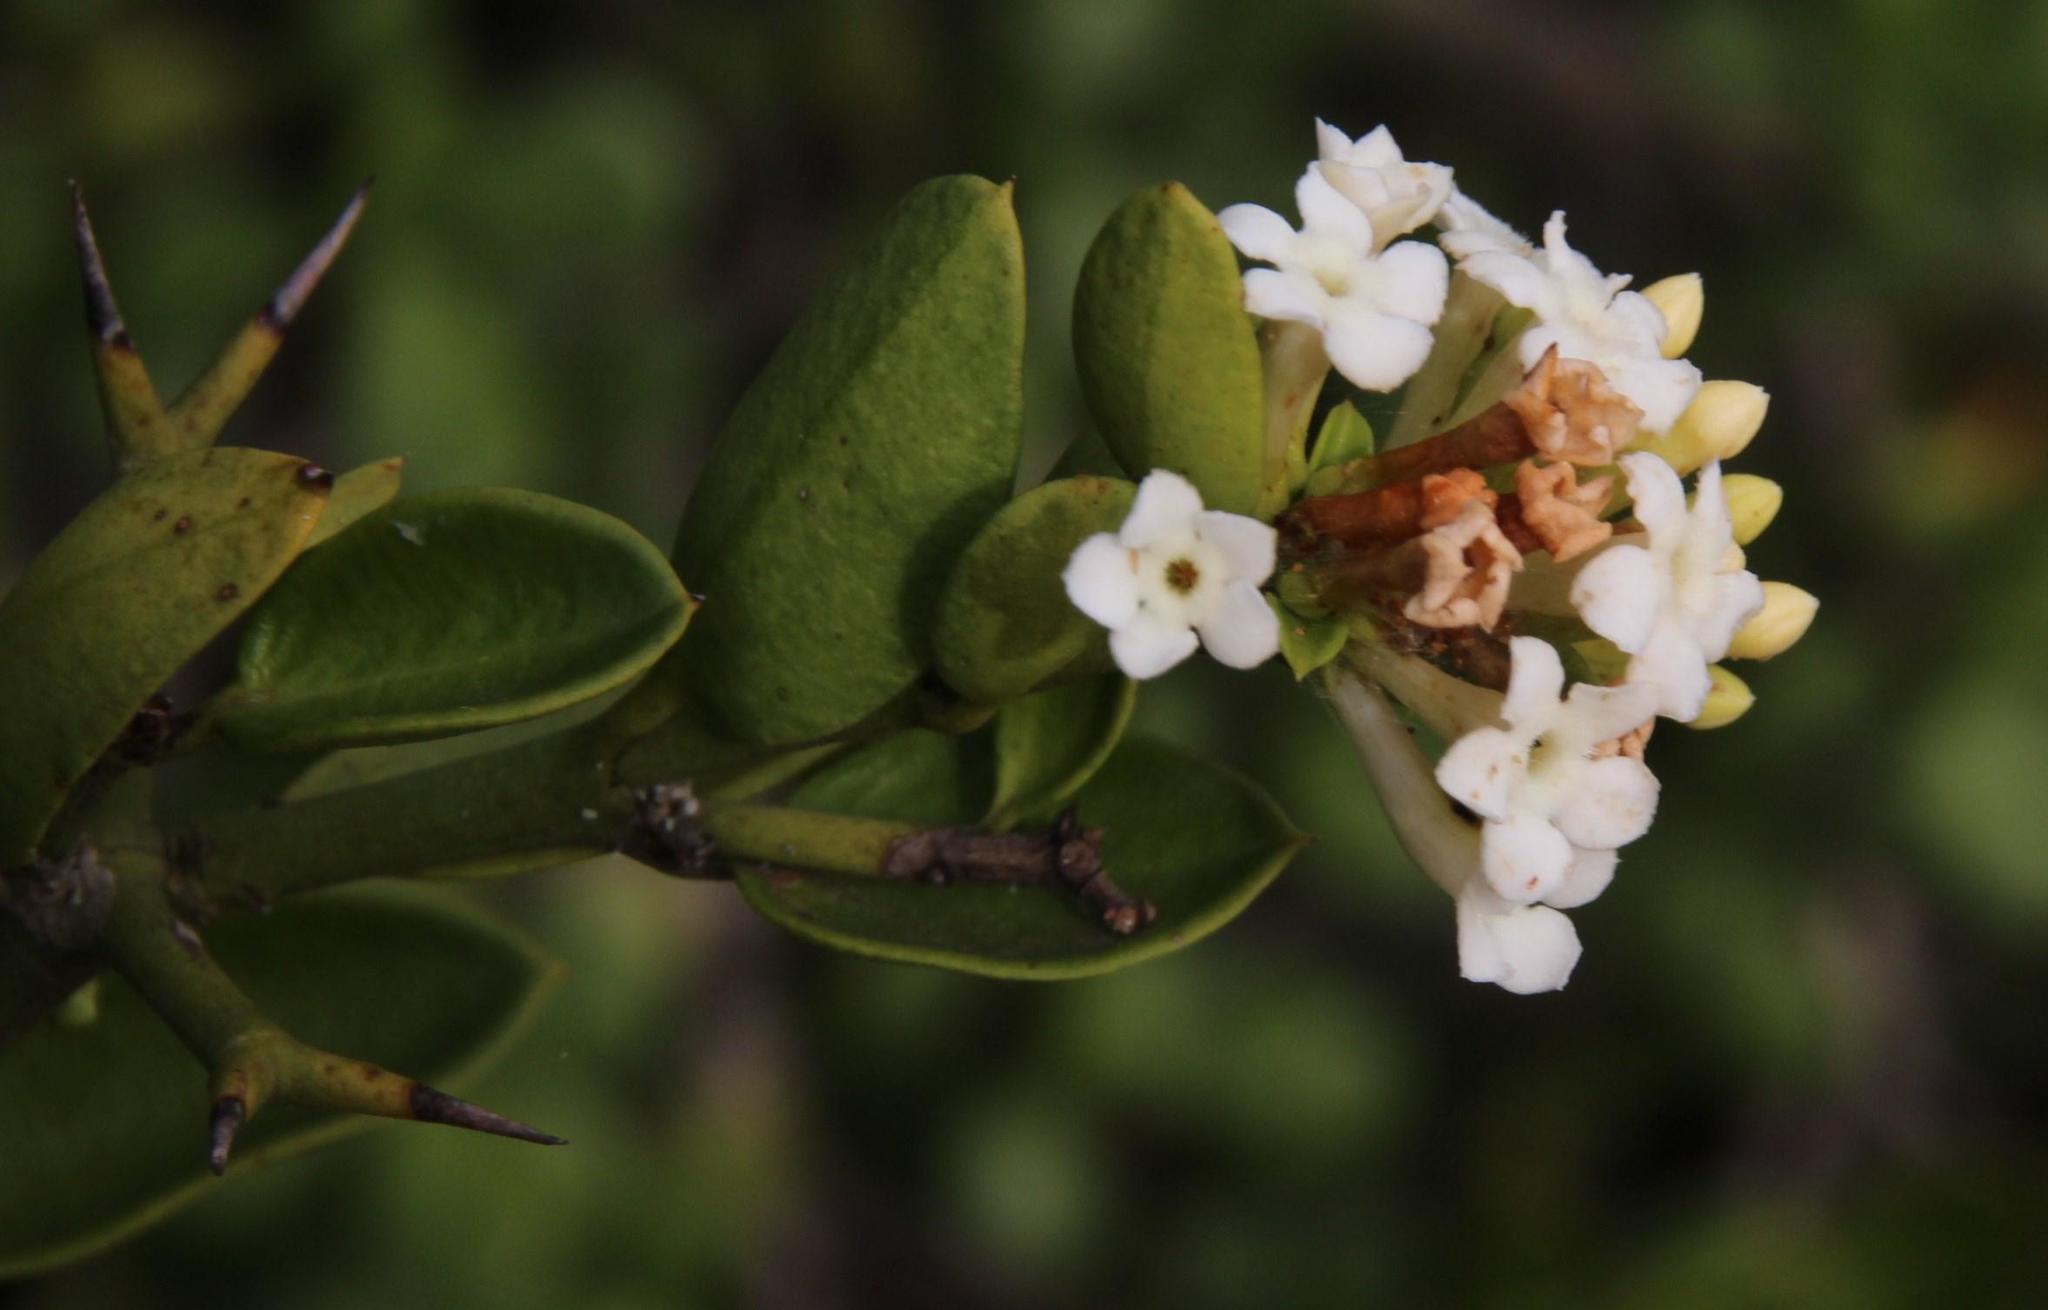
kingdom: Plantae
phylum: Tracheophyta
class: Magnoliopsida
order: Gentianales
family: Apocynaceae
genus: Carissa
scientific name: Carissa haematocarpa
